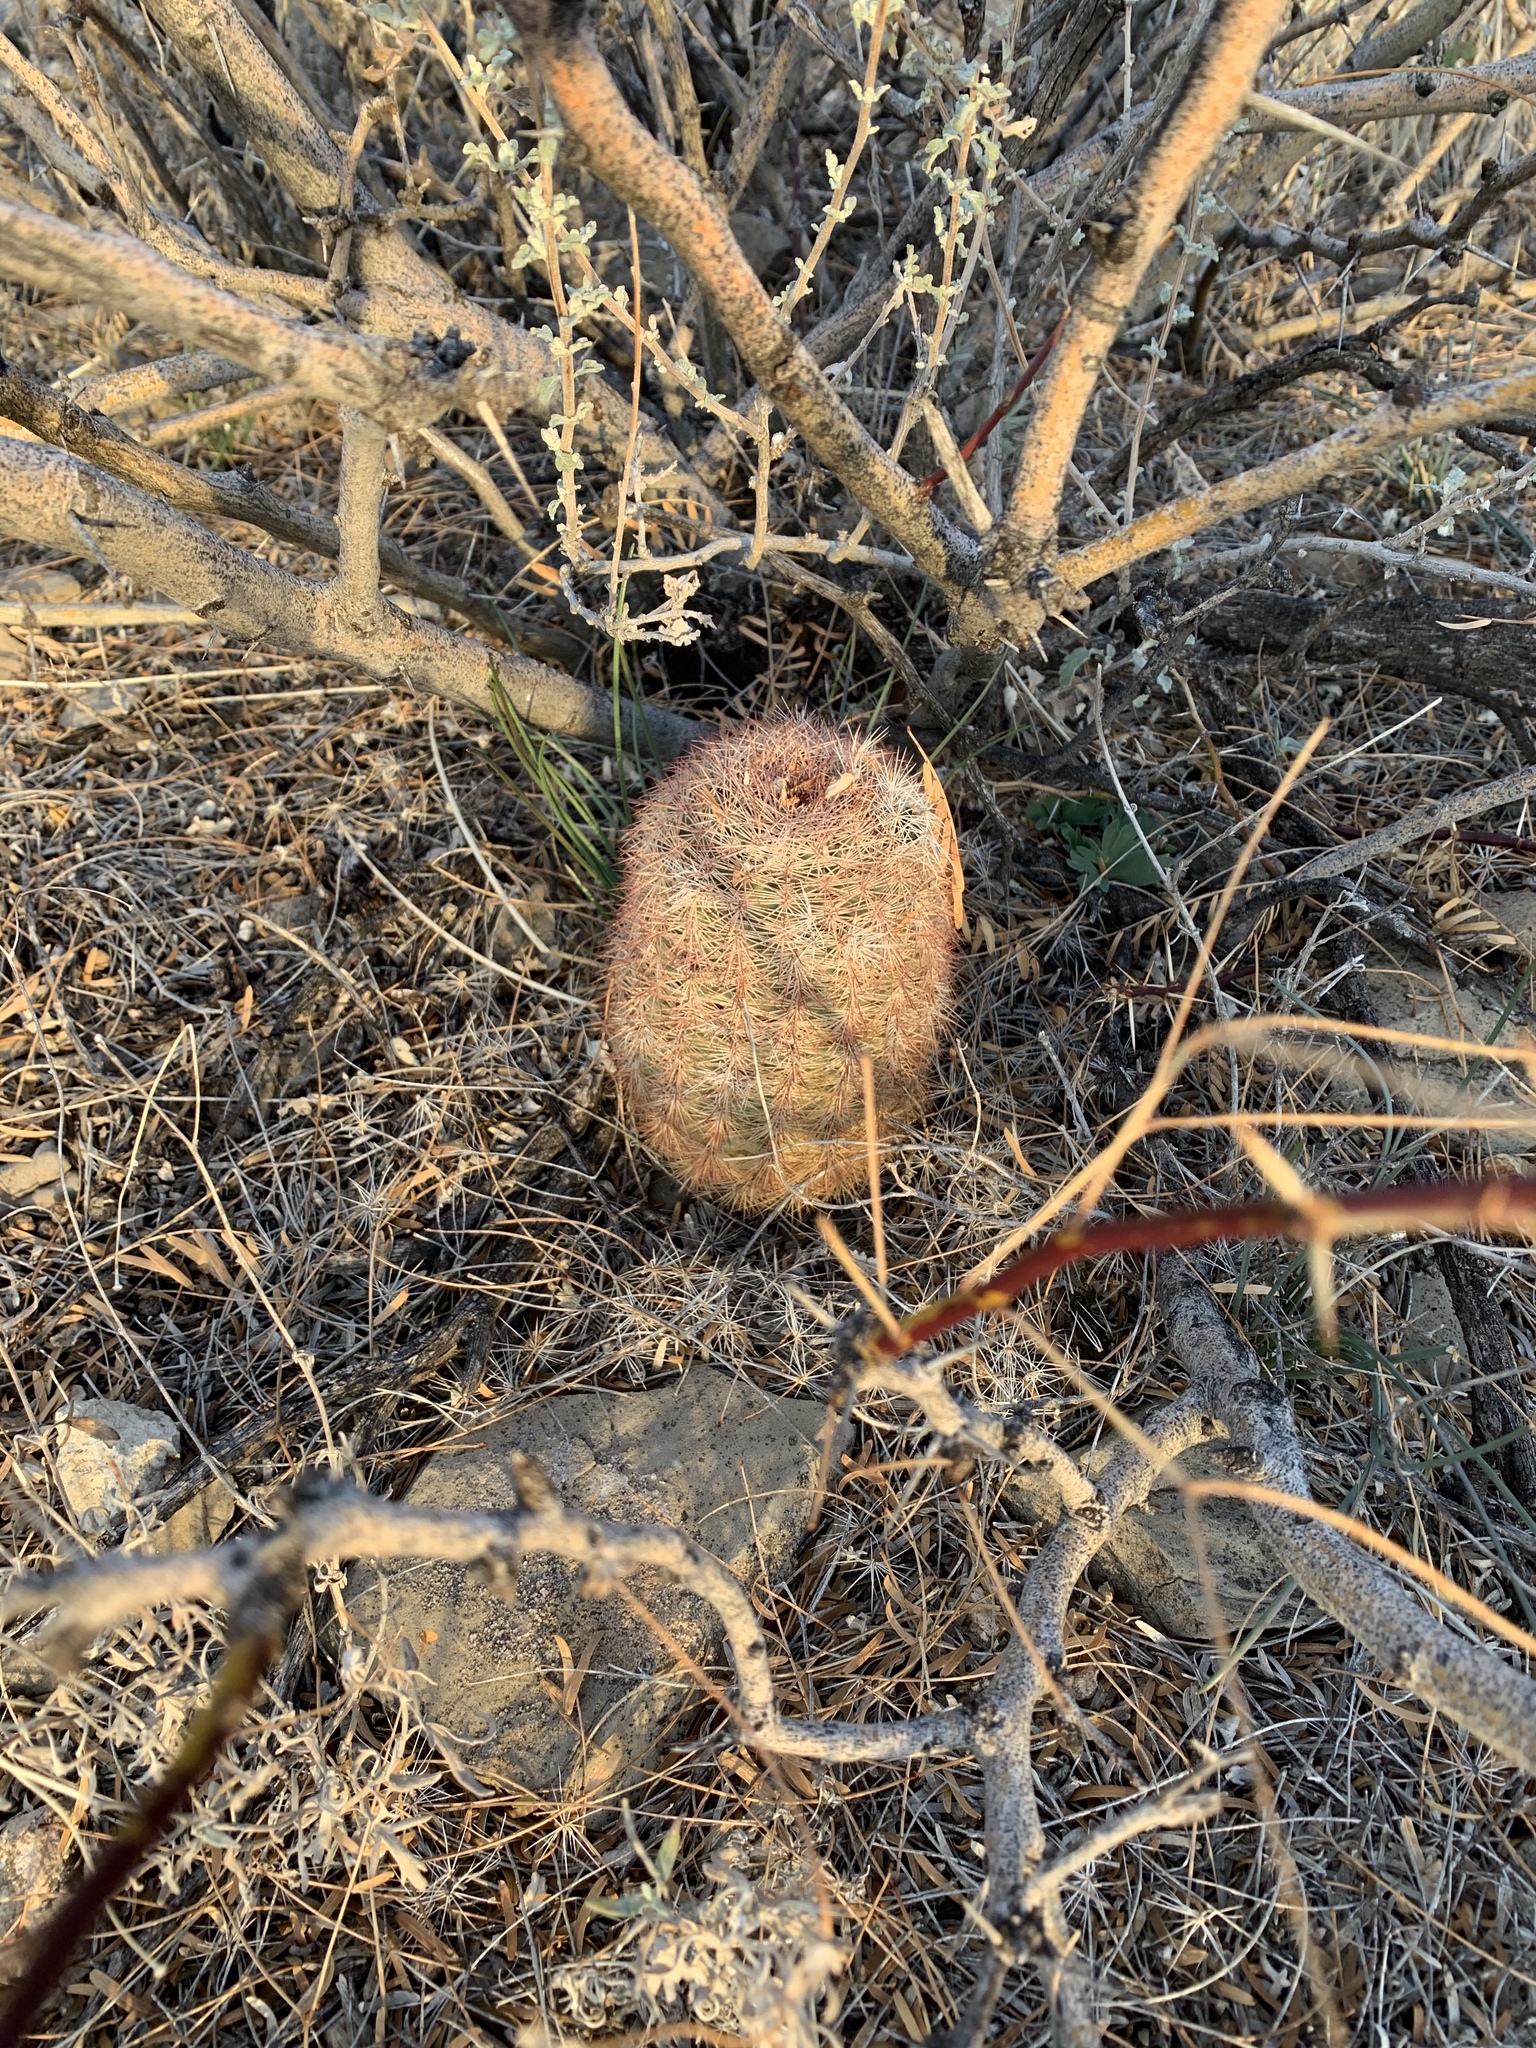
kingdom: Plantae
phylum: Tracheophyta
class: Magnoliopsida
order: Caryophyllales
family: Cactaceae
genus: Echinocereus
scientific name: Echinocereus dasyacanthus
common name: Spiny hedgehog cactus
